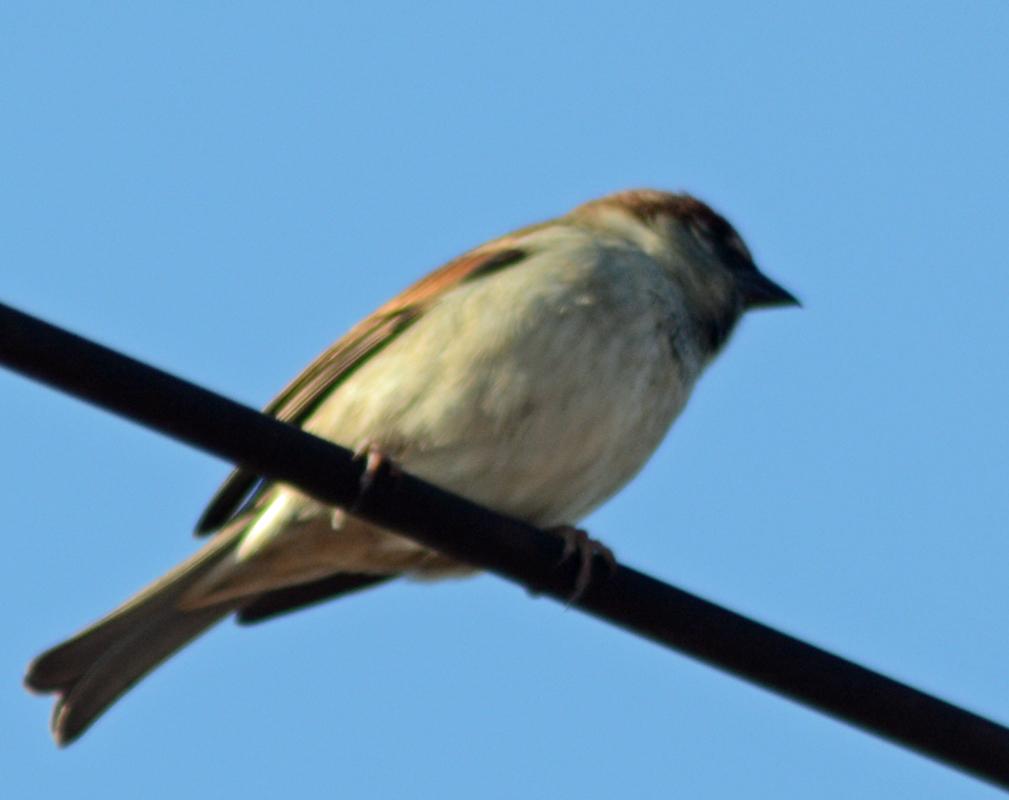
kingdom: Animalia
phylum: Chordata
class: Aves
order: Passeriformes
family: Passeridae
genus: Passer
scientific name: Passer domesticus
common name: House sparrow
